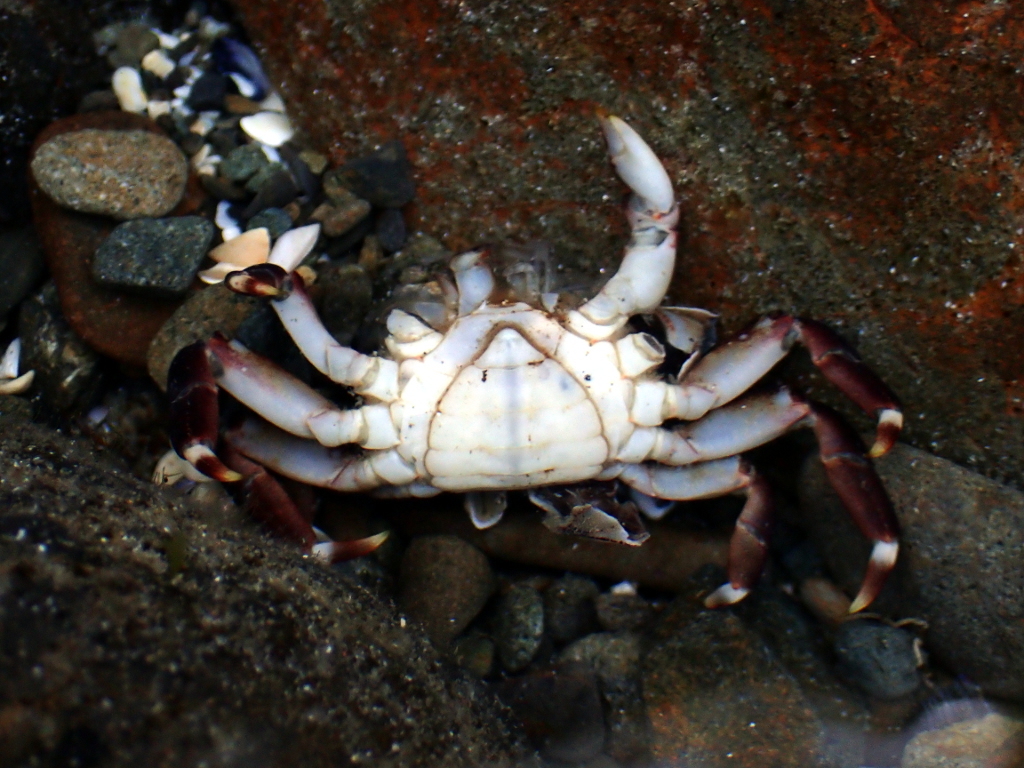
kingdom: Animalia
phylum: Arthropoda
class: Malacostraca
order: Decapoda
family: Varunidae
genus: Hemigrapsus
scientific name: Hemigrapsus sexdentatus
